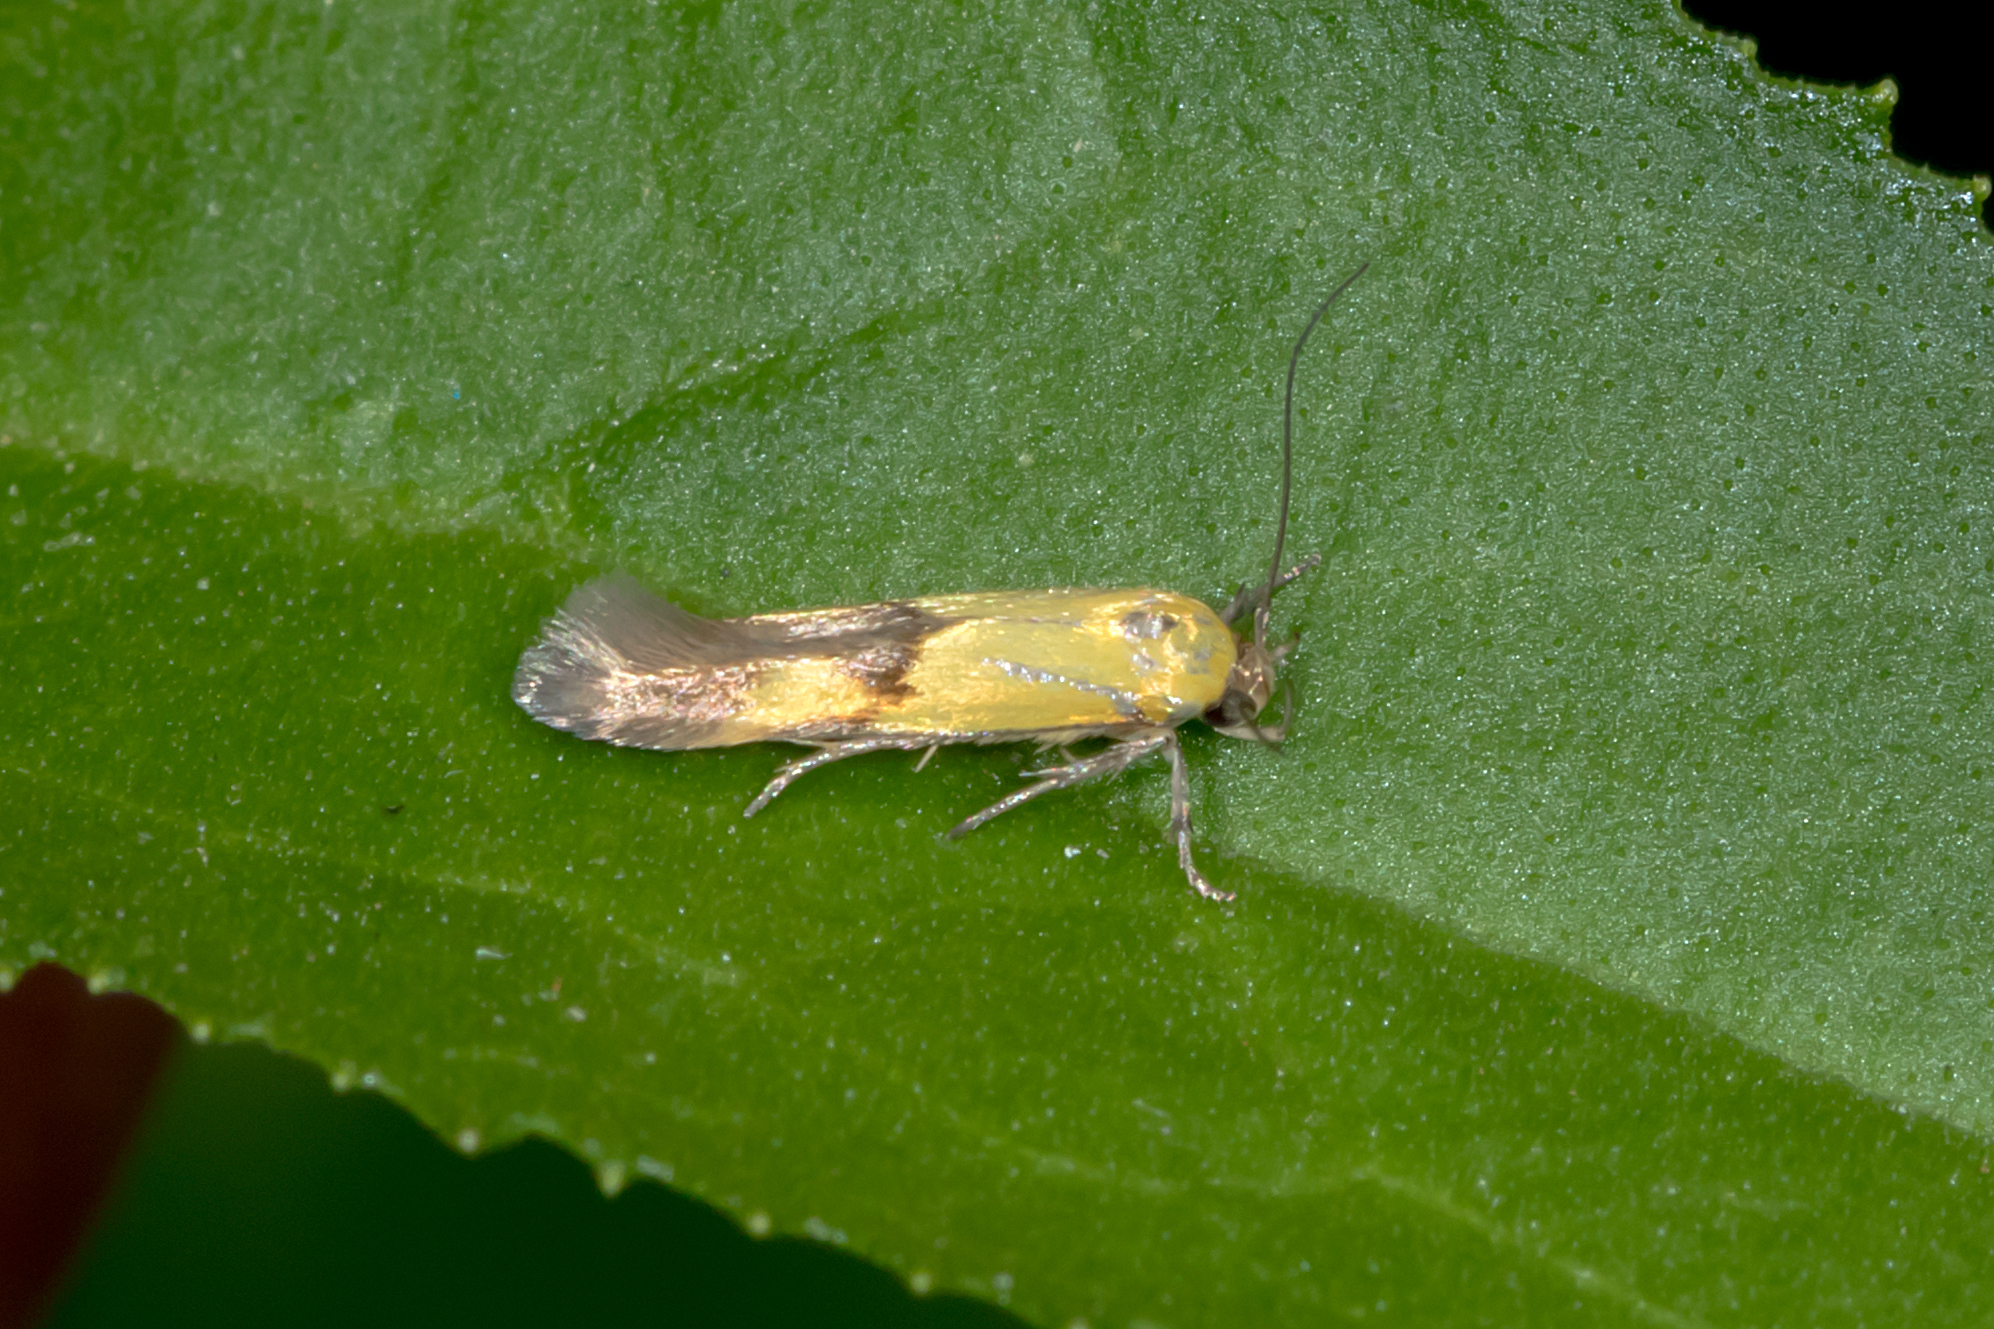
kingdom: Animalia
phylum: Arthropoda
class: Insecta
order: Lepidoptera
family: Stathmopodidae
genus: Stathmopoda
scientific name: Stathmopoda auriferella
